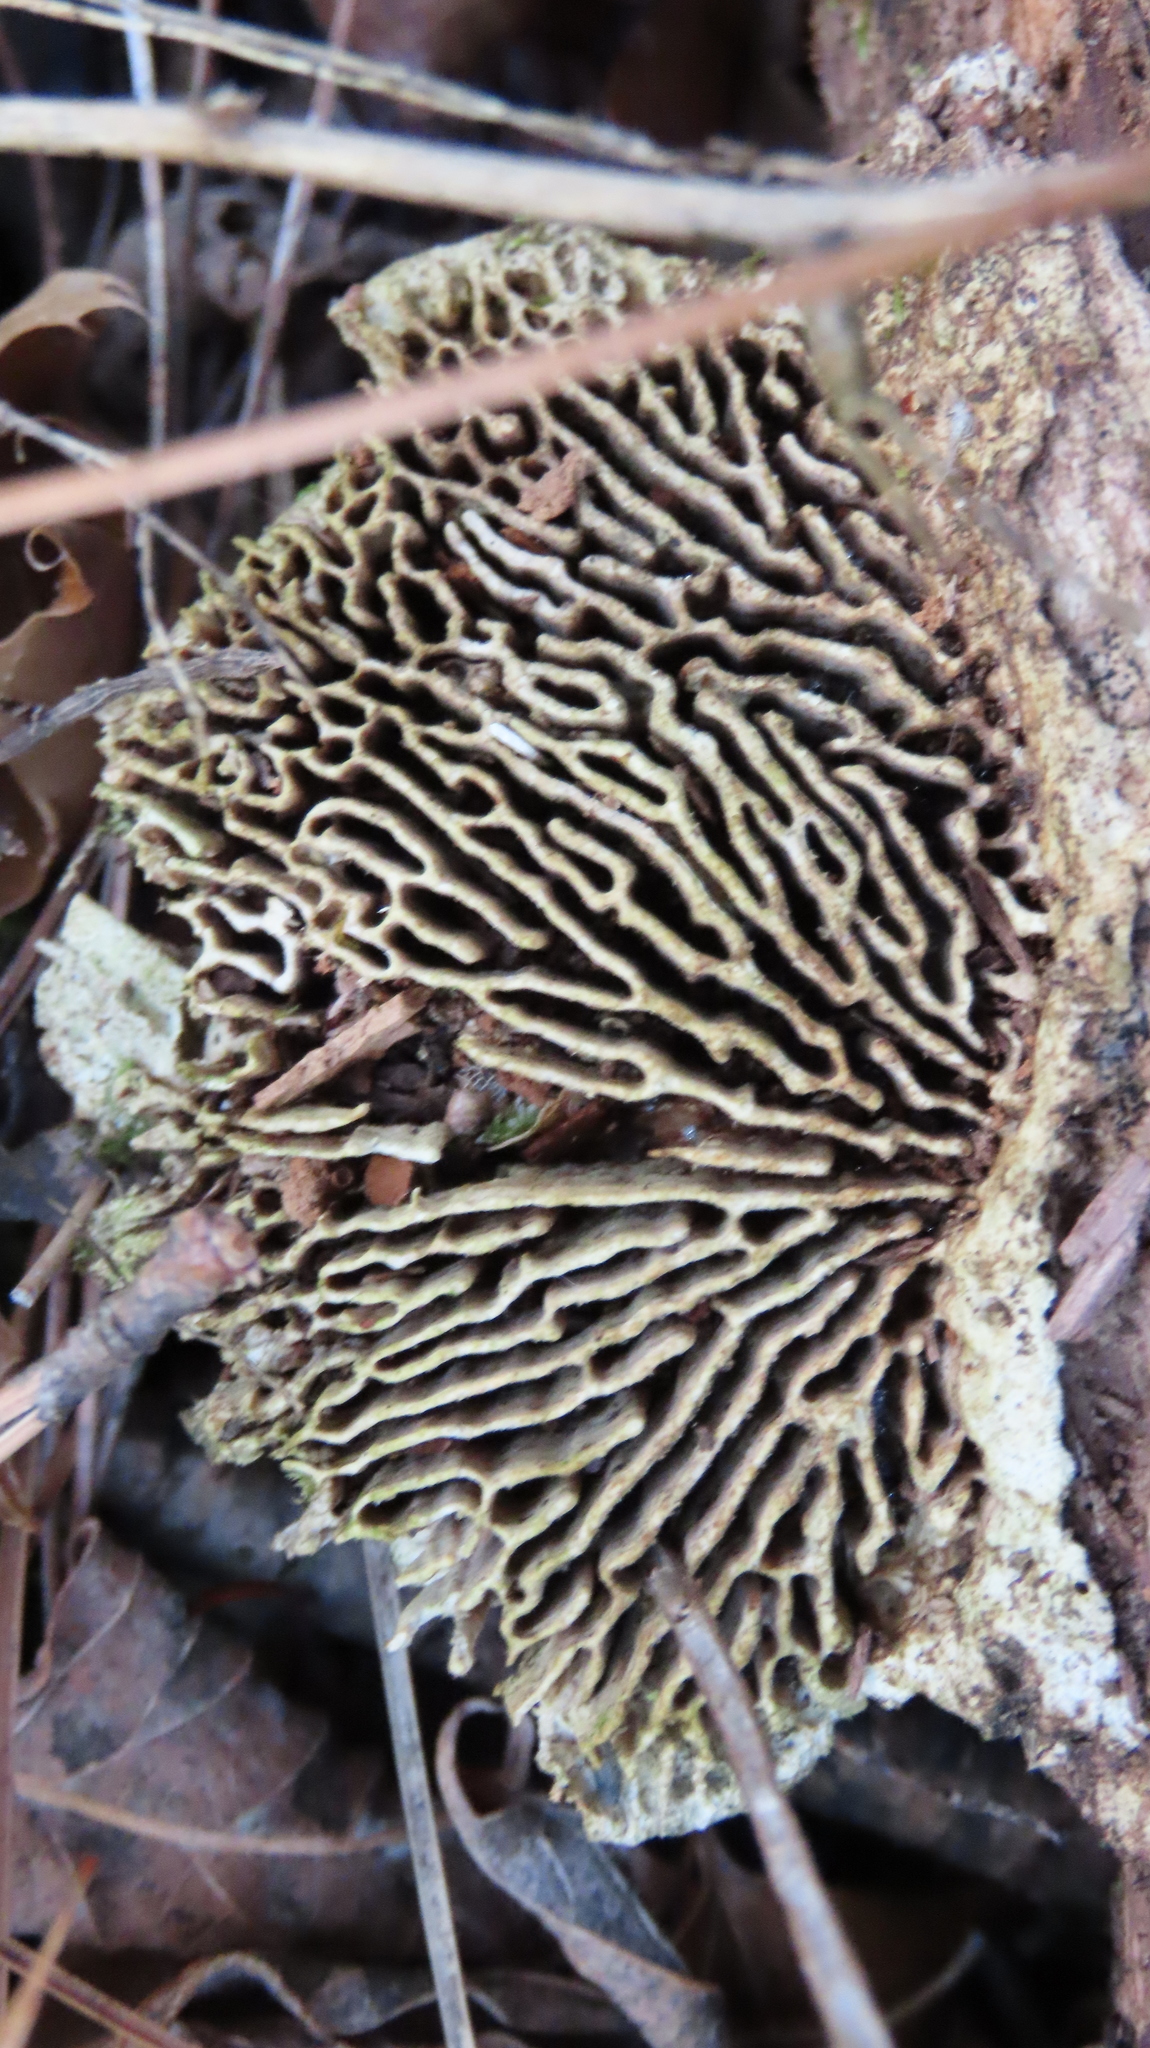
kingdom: Fungi
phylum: Basidiomycota
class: Agaricomycetes
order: Polyporales
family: Fomitopsidaceae
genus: Fomitopsis
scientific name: Fomitopsis
